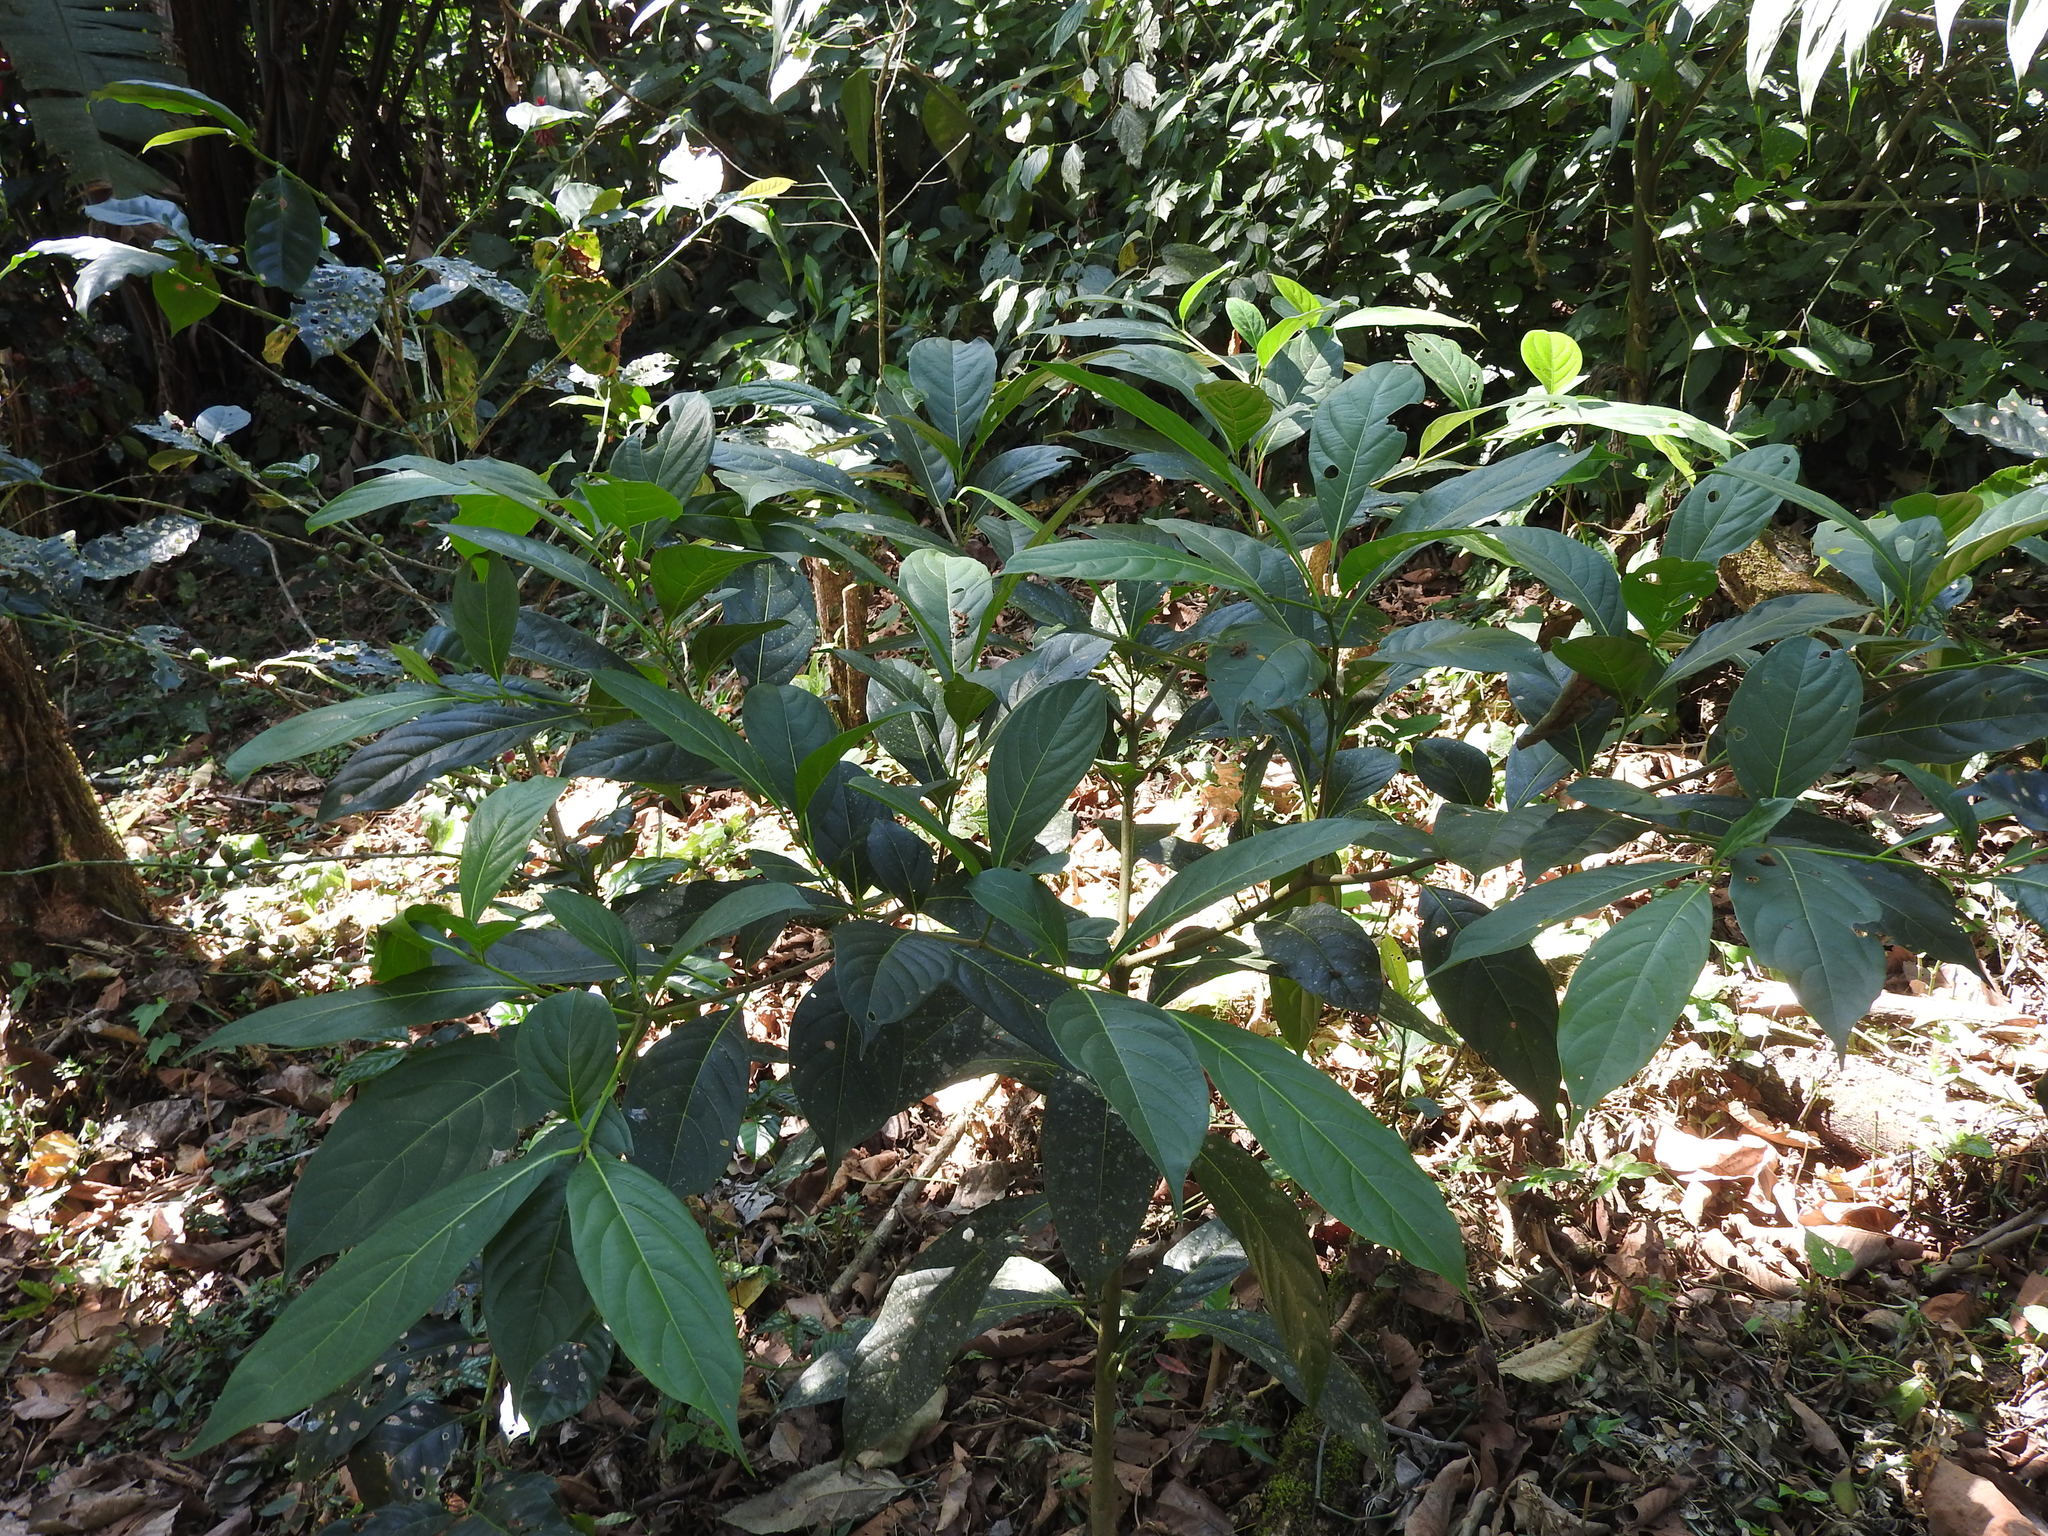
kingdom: Plantae
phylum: Tracheophyta
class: Magnoliopsida
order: Boraginales
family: Cordiaceae
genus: Cordia
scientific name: Cordia collococca
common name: Clammy cherry
